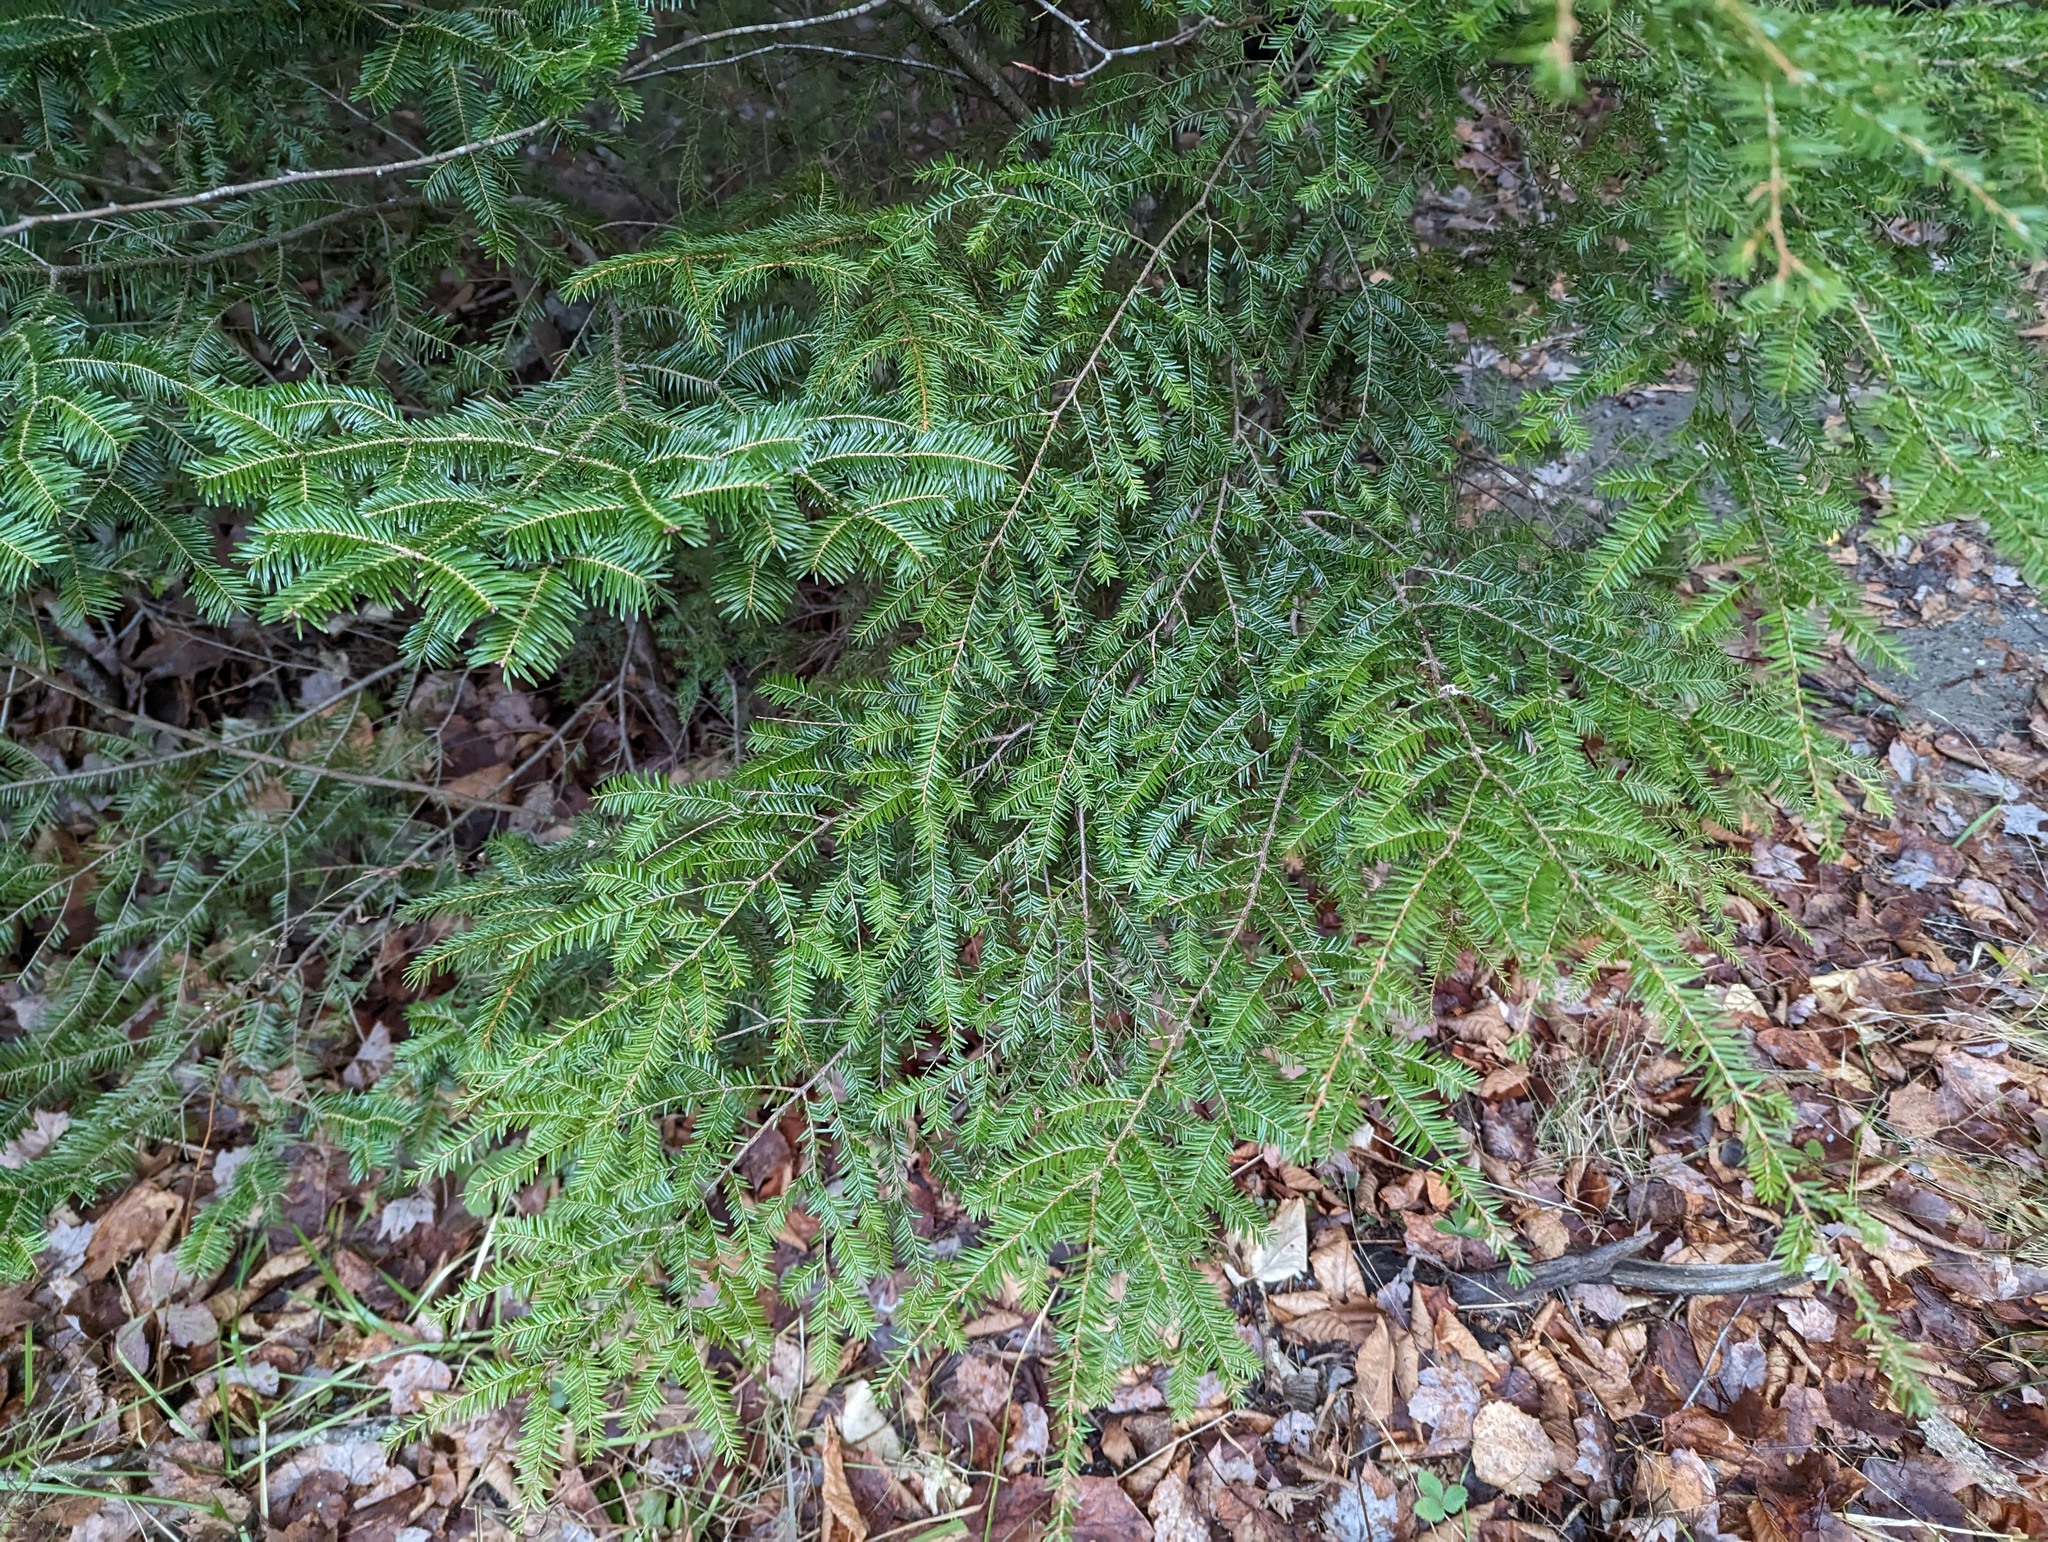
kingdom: Plantae
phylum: Tracheophyta
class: Pinopsida
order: Pinales
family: Pinaceae
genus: Tsuga
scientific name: Tsuga canadensis
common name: Eastern hemlock
